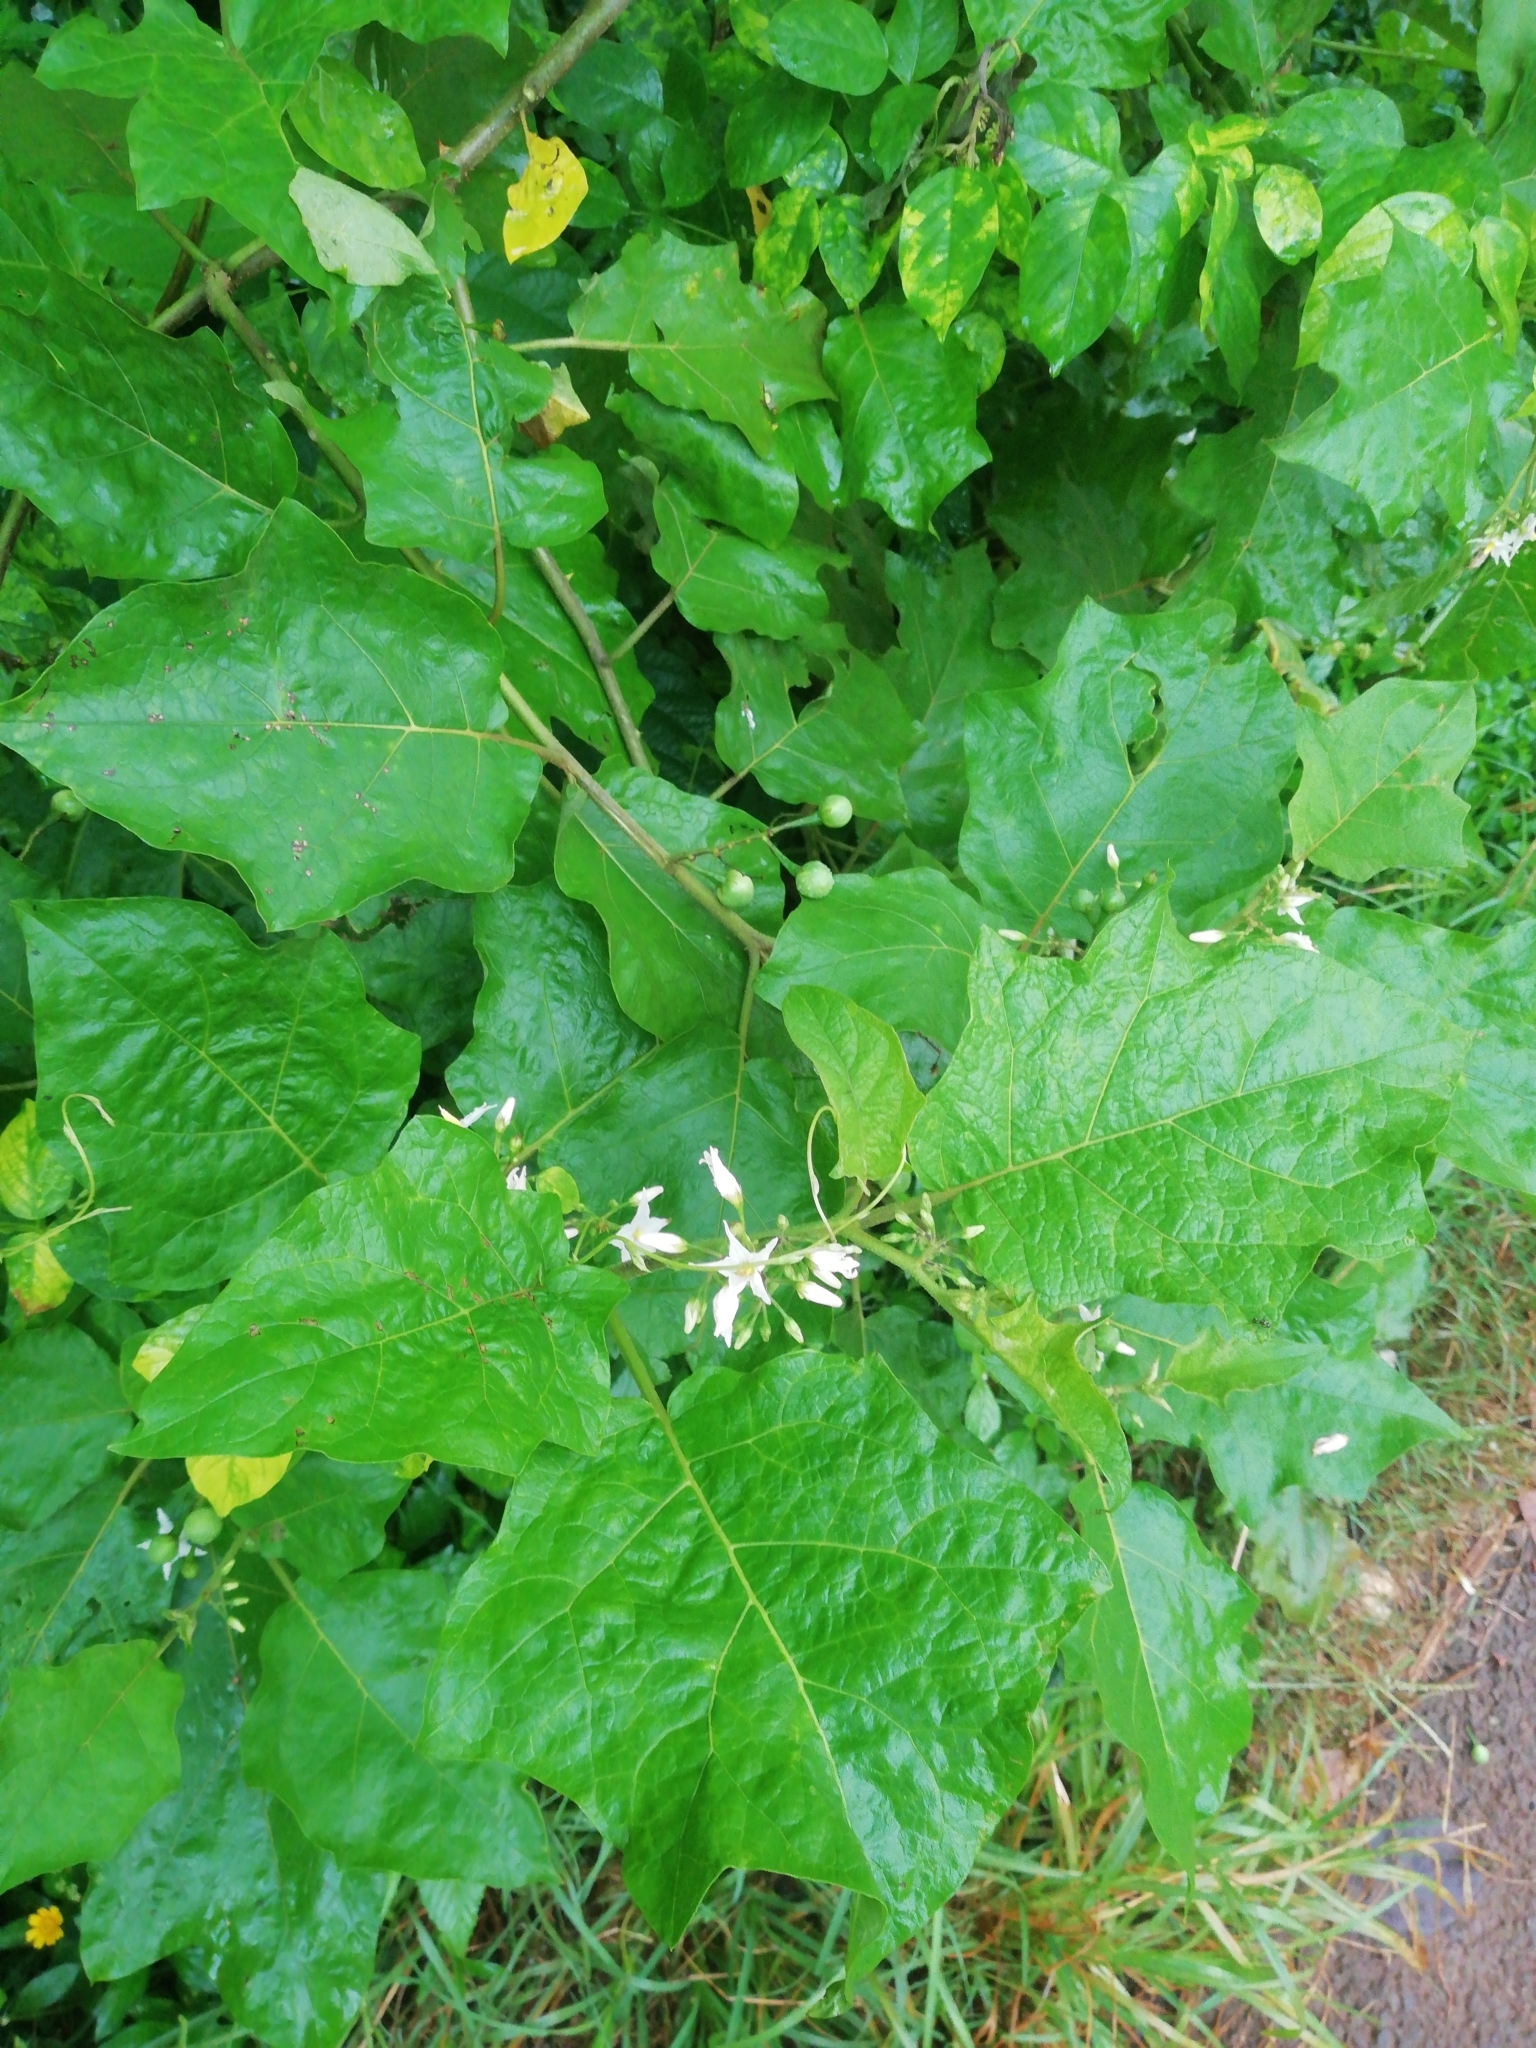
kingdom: Plantae
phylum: Tracheophyta
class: Magnoliopsida
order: Solanales
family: Solanaceae
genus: Solanum
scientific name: Solanum torvum
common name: Turkey berry
